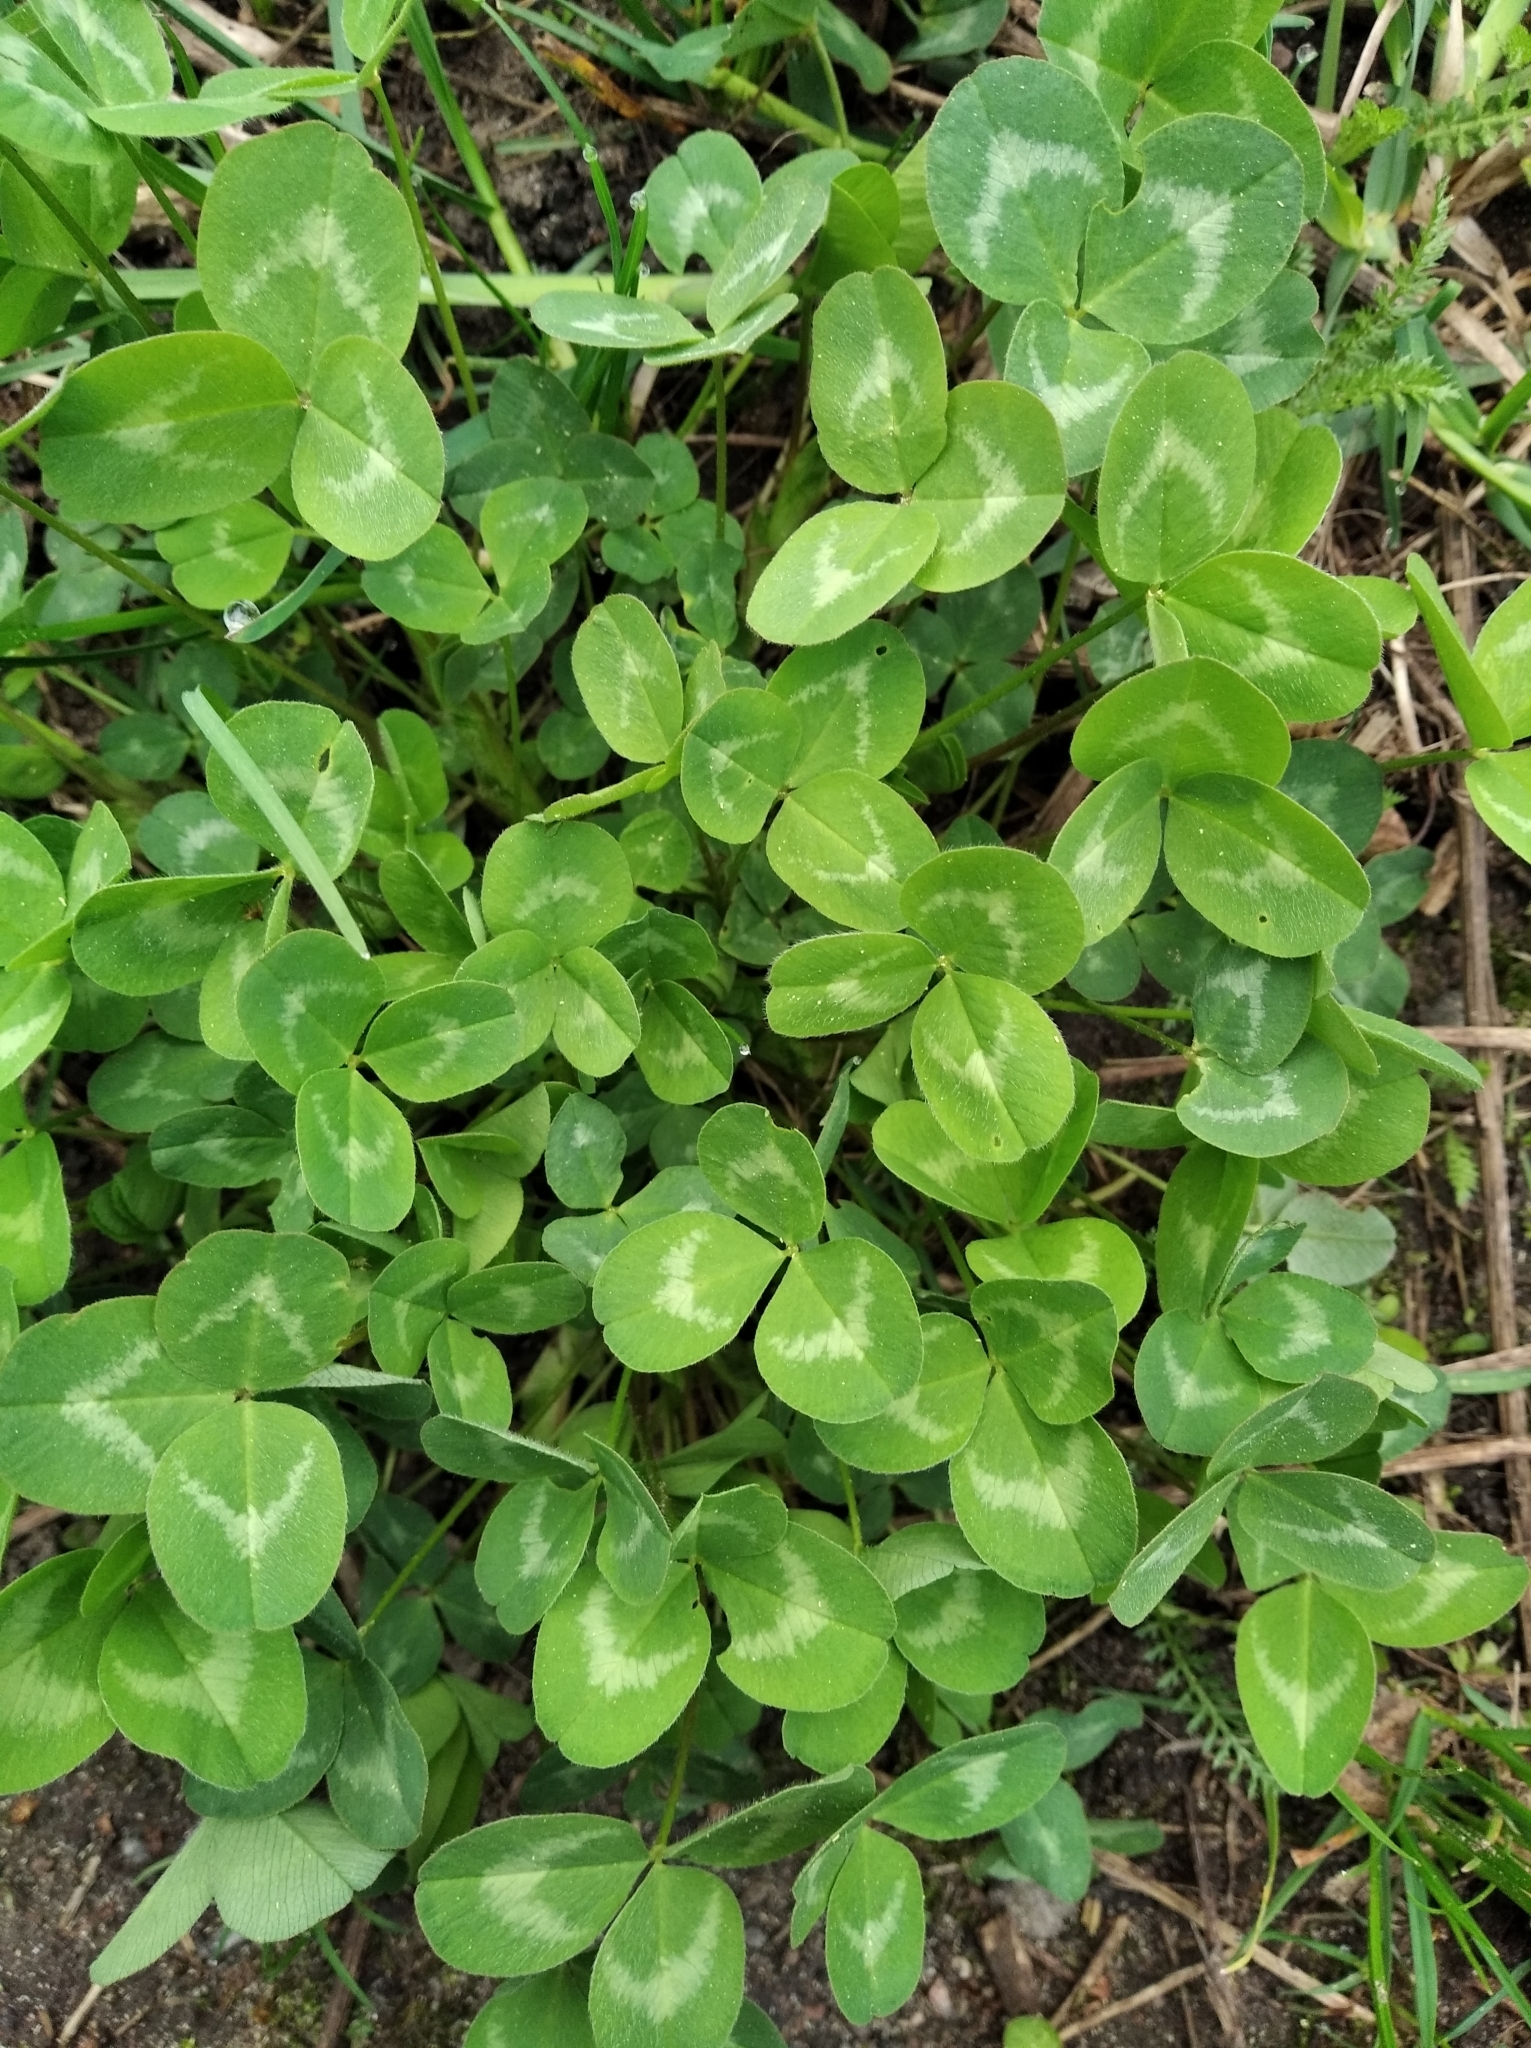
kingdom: Plantae
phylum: Tracheophyta
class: Magnoliopsida
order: Fabales
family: Fabaceae
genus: Trifolium
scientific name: Trifolium pratense
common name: Red clover
